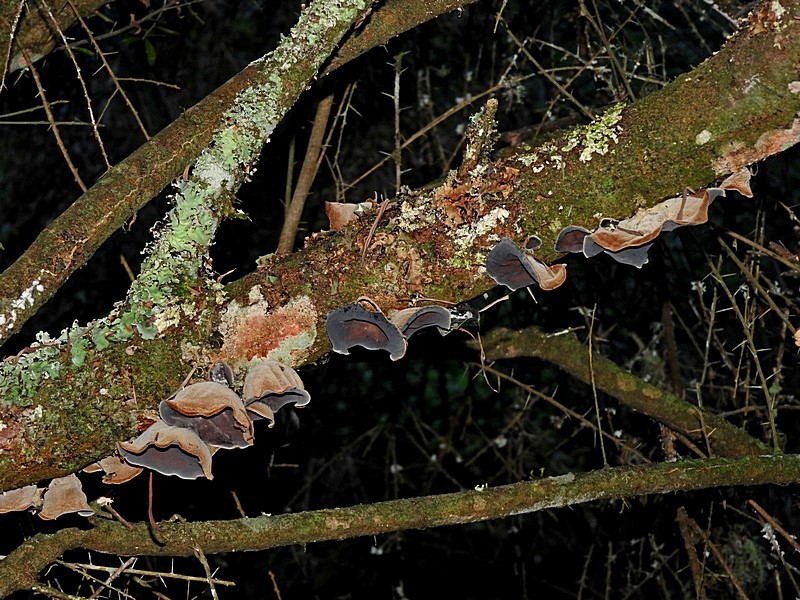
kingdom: Fungi
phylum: Basidiomycota
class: Agaricomycetes
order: Auriculariales
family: Auriculariaceae
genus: Auricularia
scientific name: Auricularia cornea
